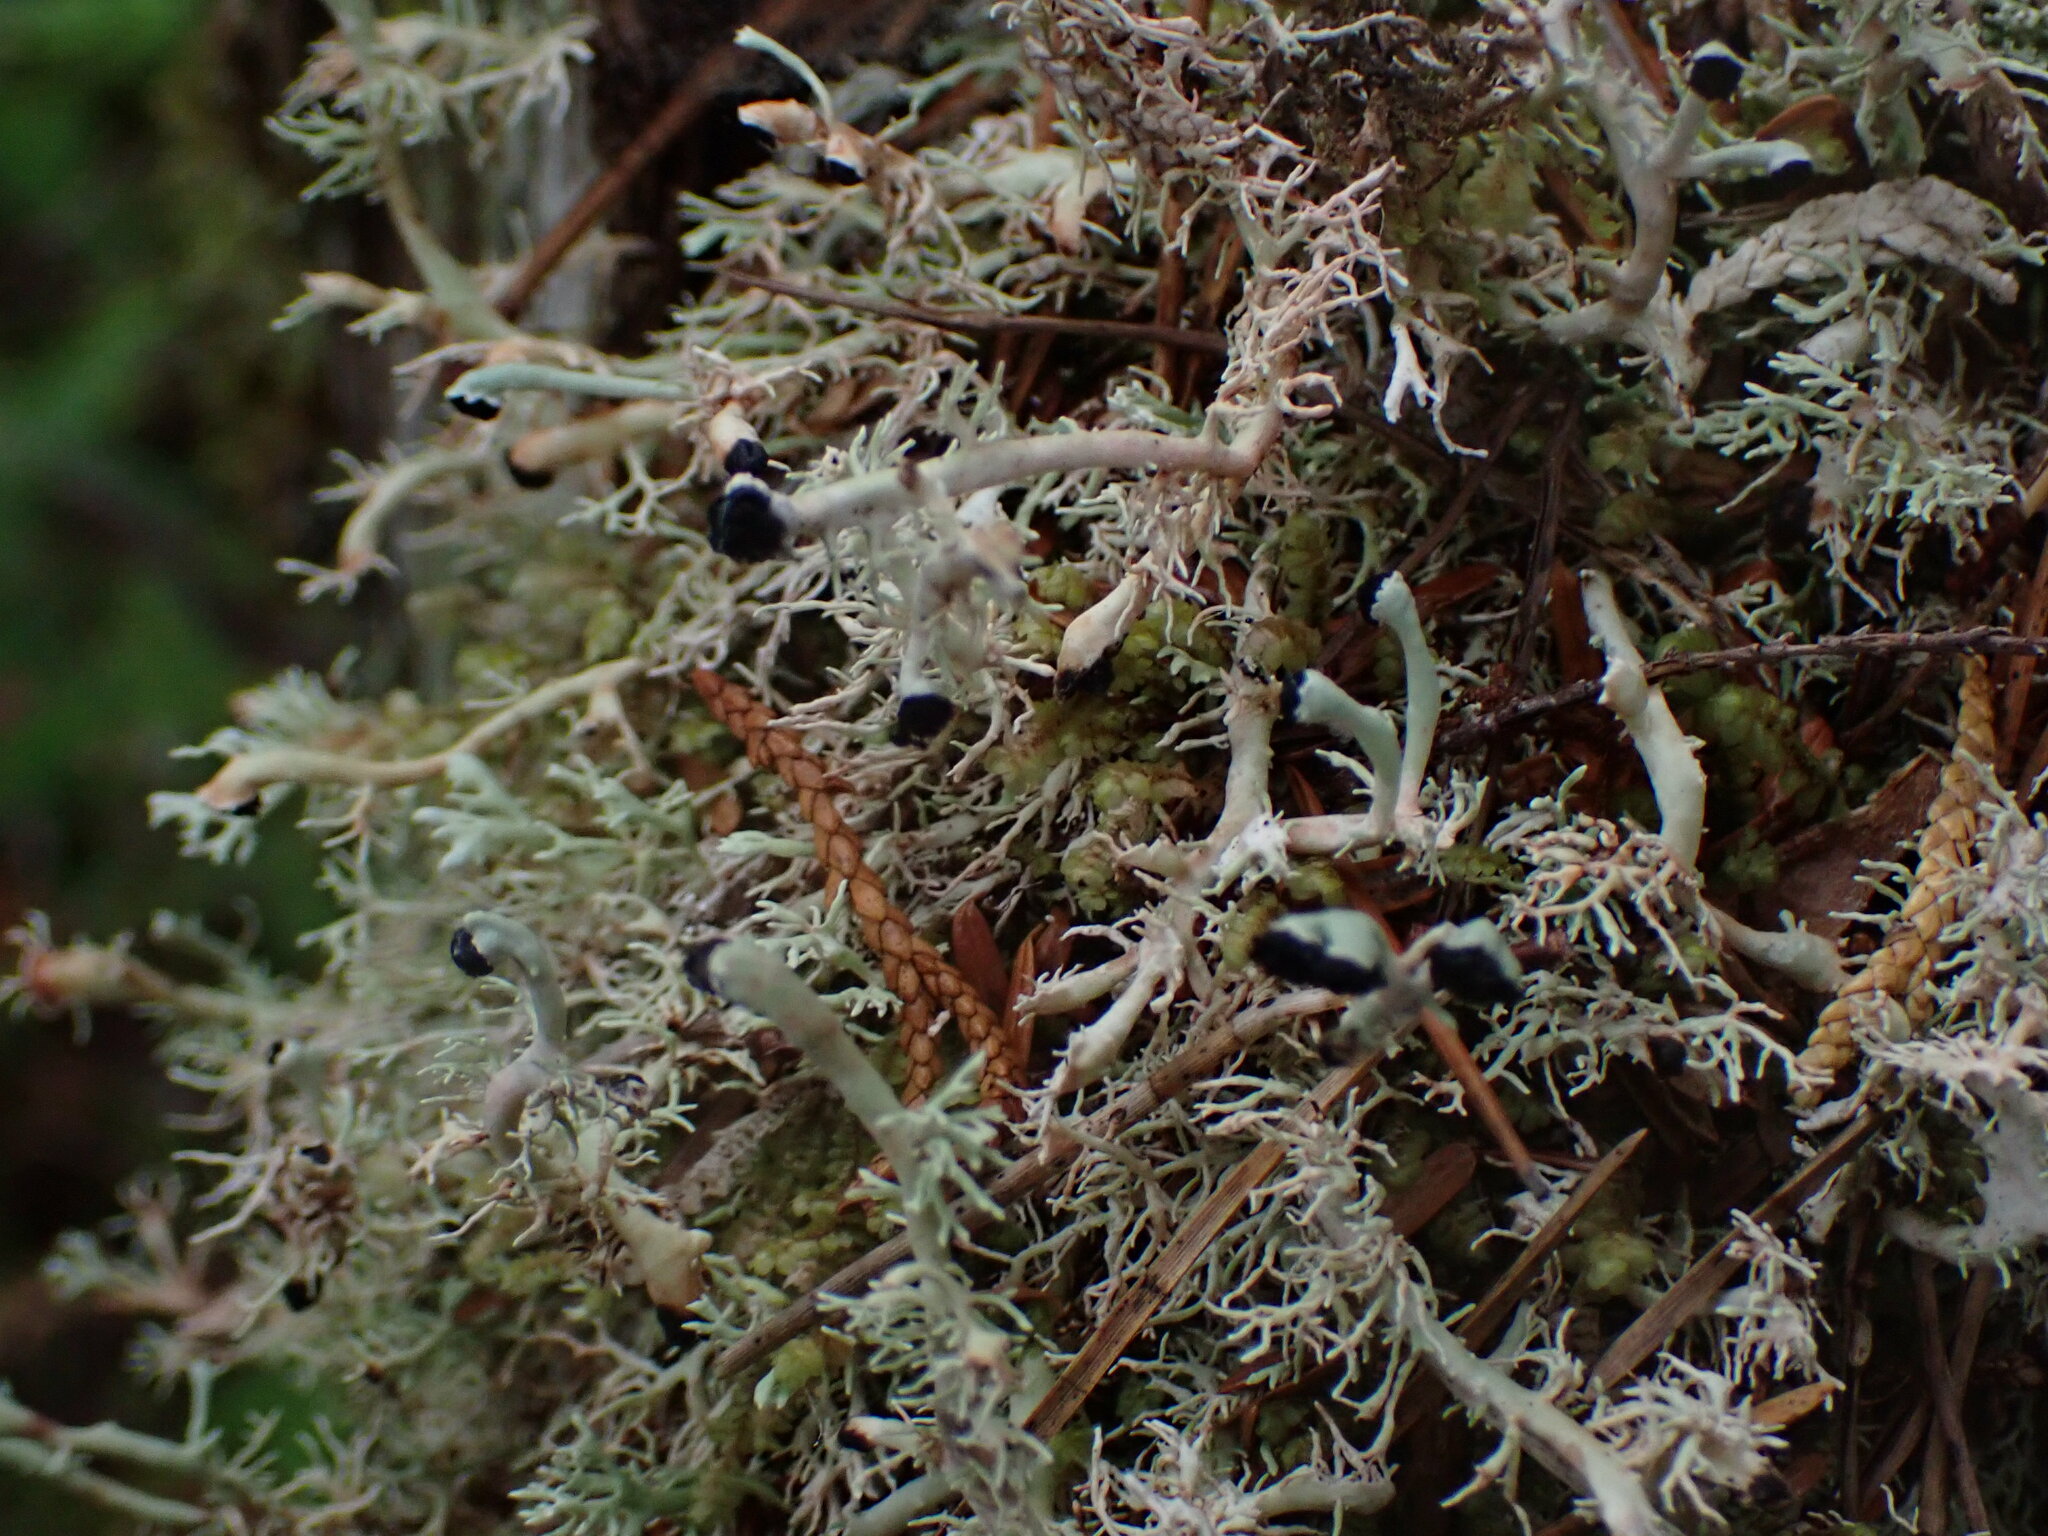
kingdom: Fungi
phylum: Ascomycota
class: Lecanoromycetes
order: Lecanorales
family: Sphaerophoraceae
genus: Bunodophoron
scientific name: Bunodophoron melanocarpum
